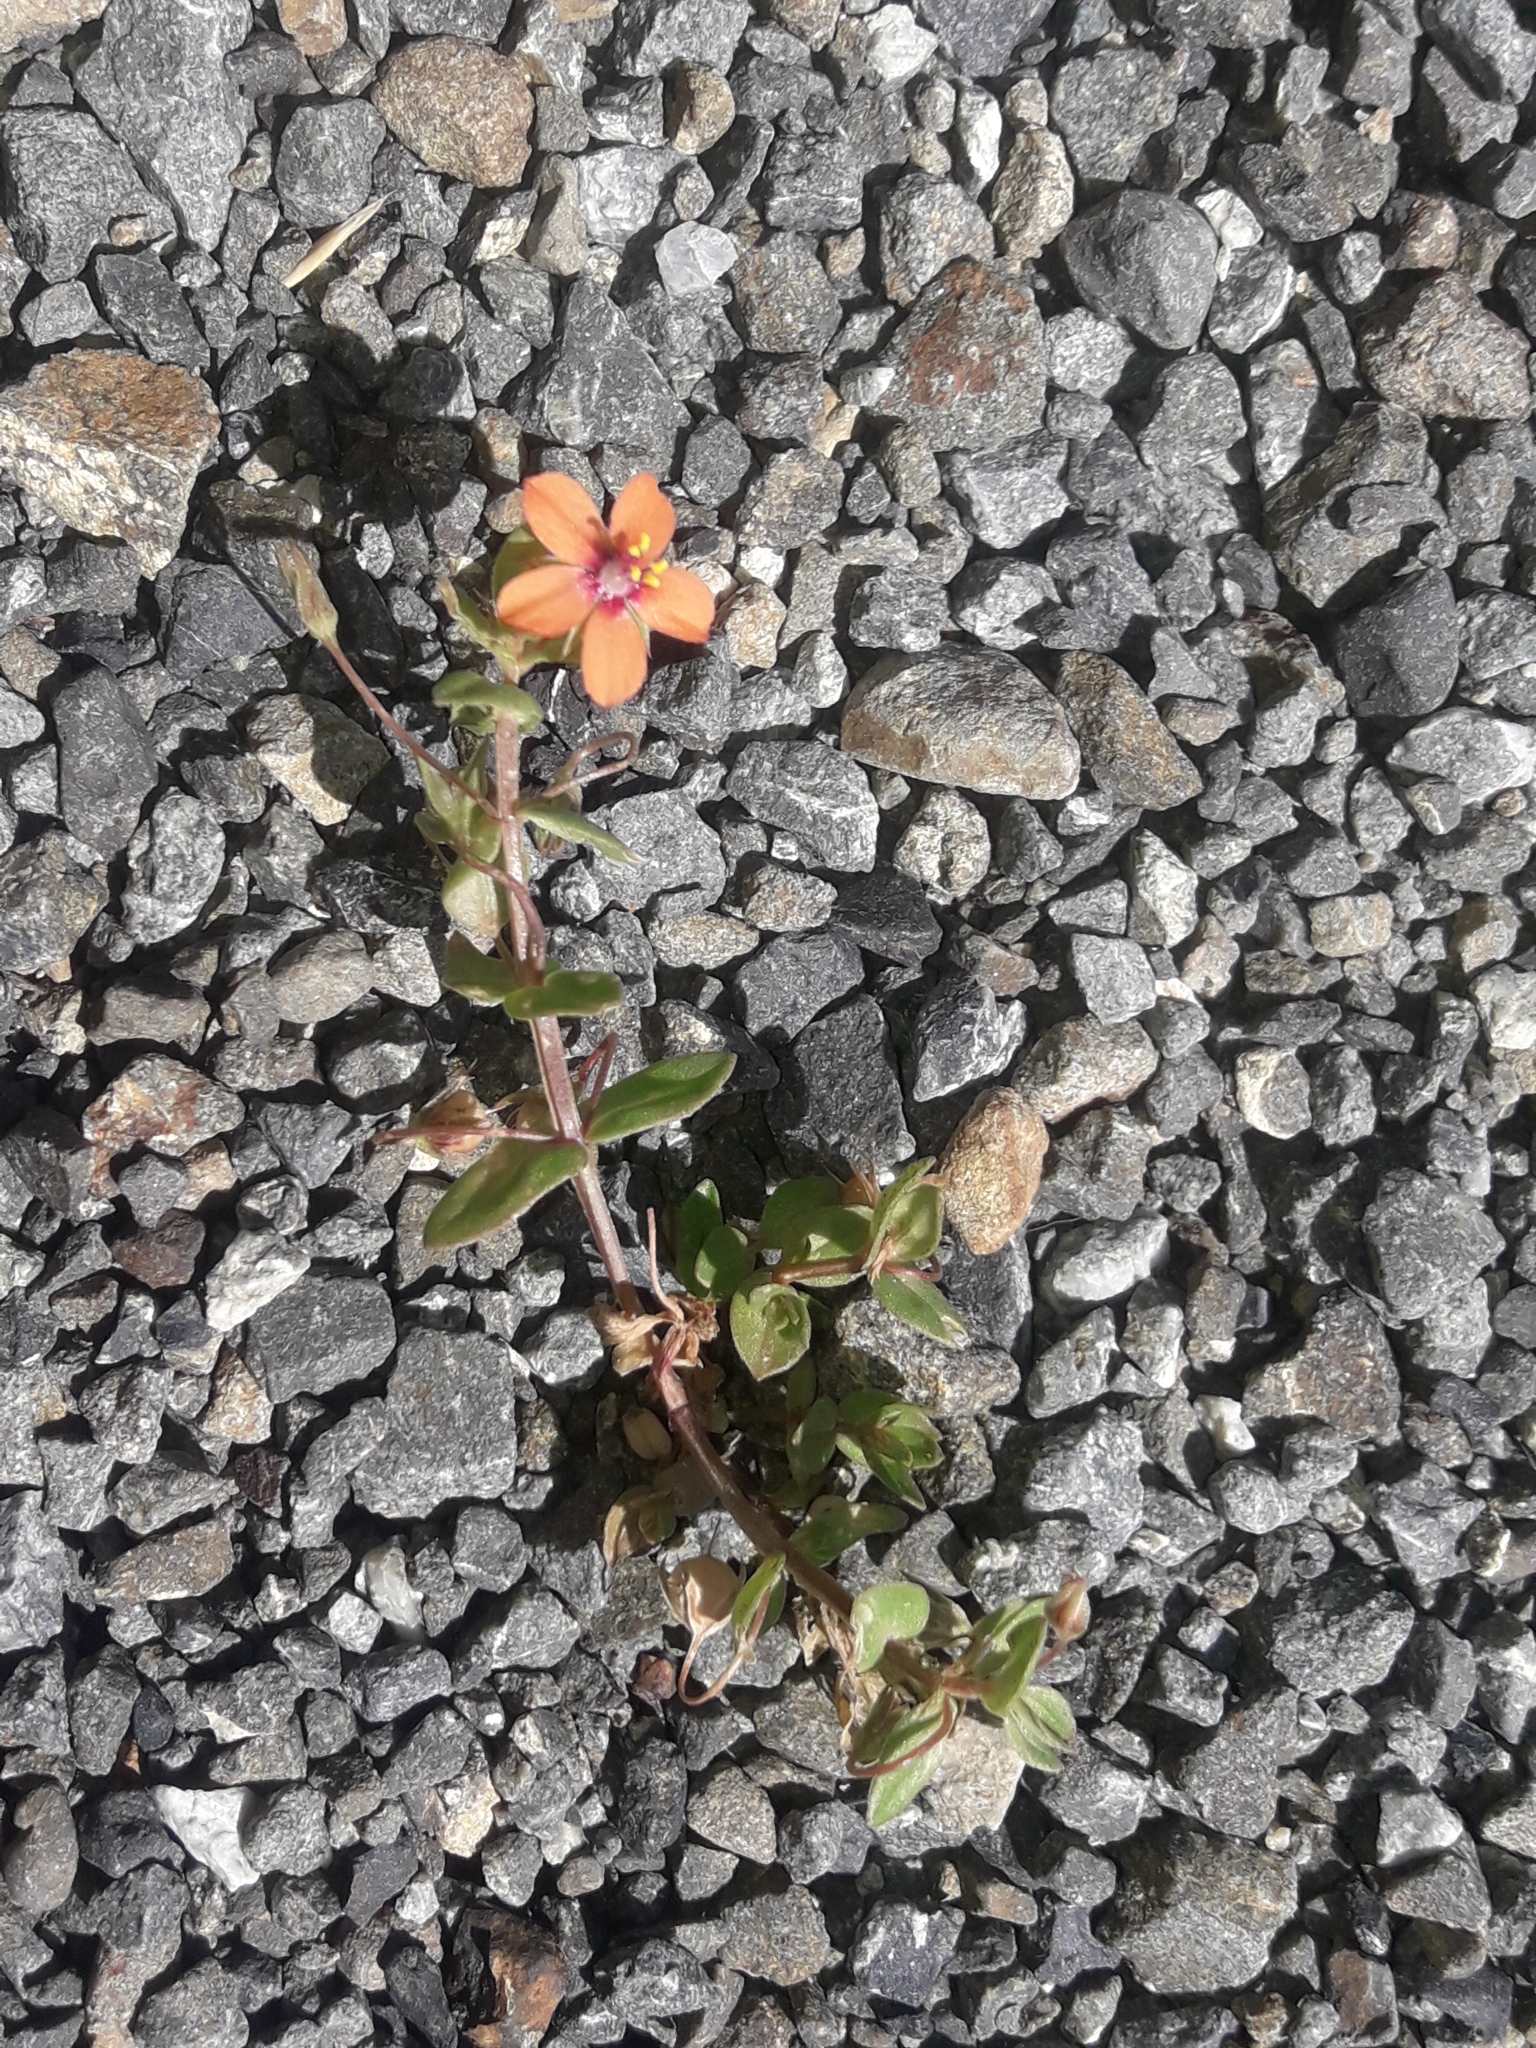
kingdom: Plantae
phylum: Tracheophyta
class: Magnoliopsida
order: Ericales
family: Primulaceae
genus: Lysimachia
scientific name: Lysimachia arvensis
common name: Scarlet pimpernel
